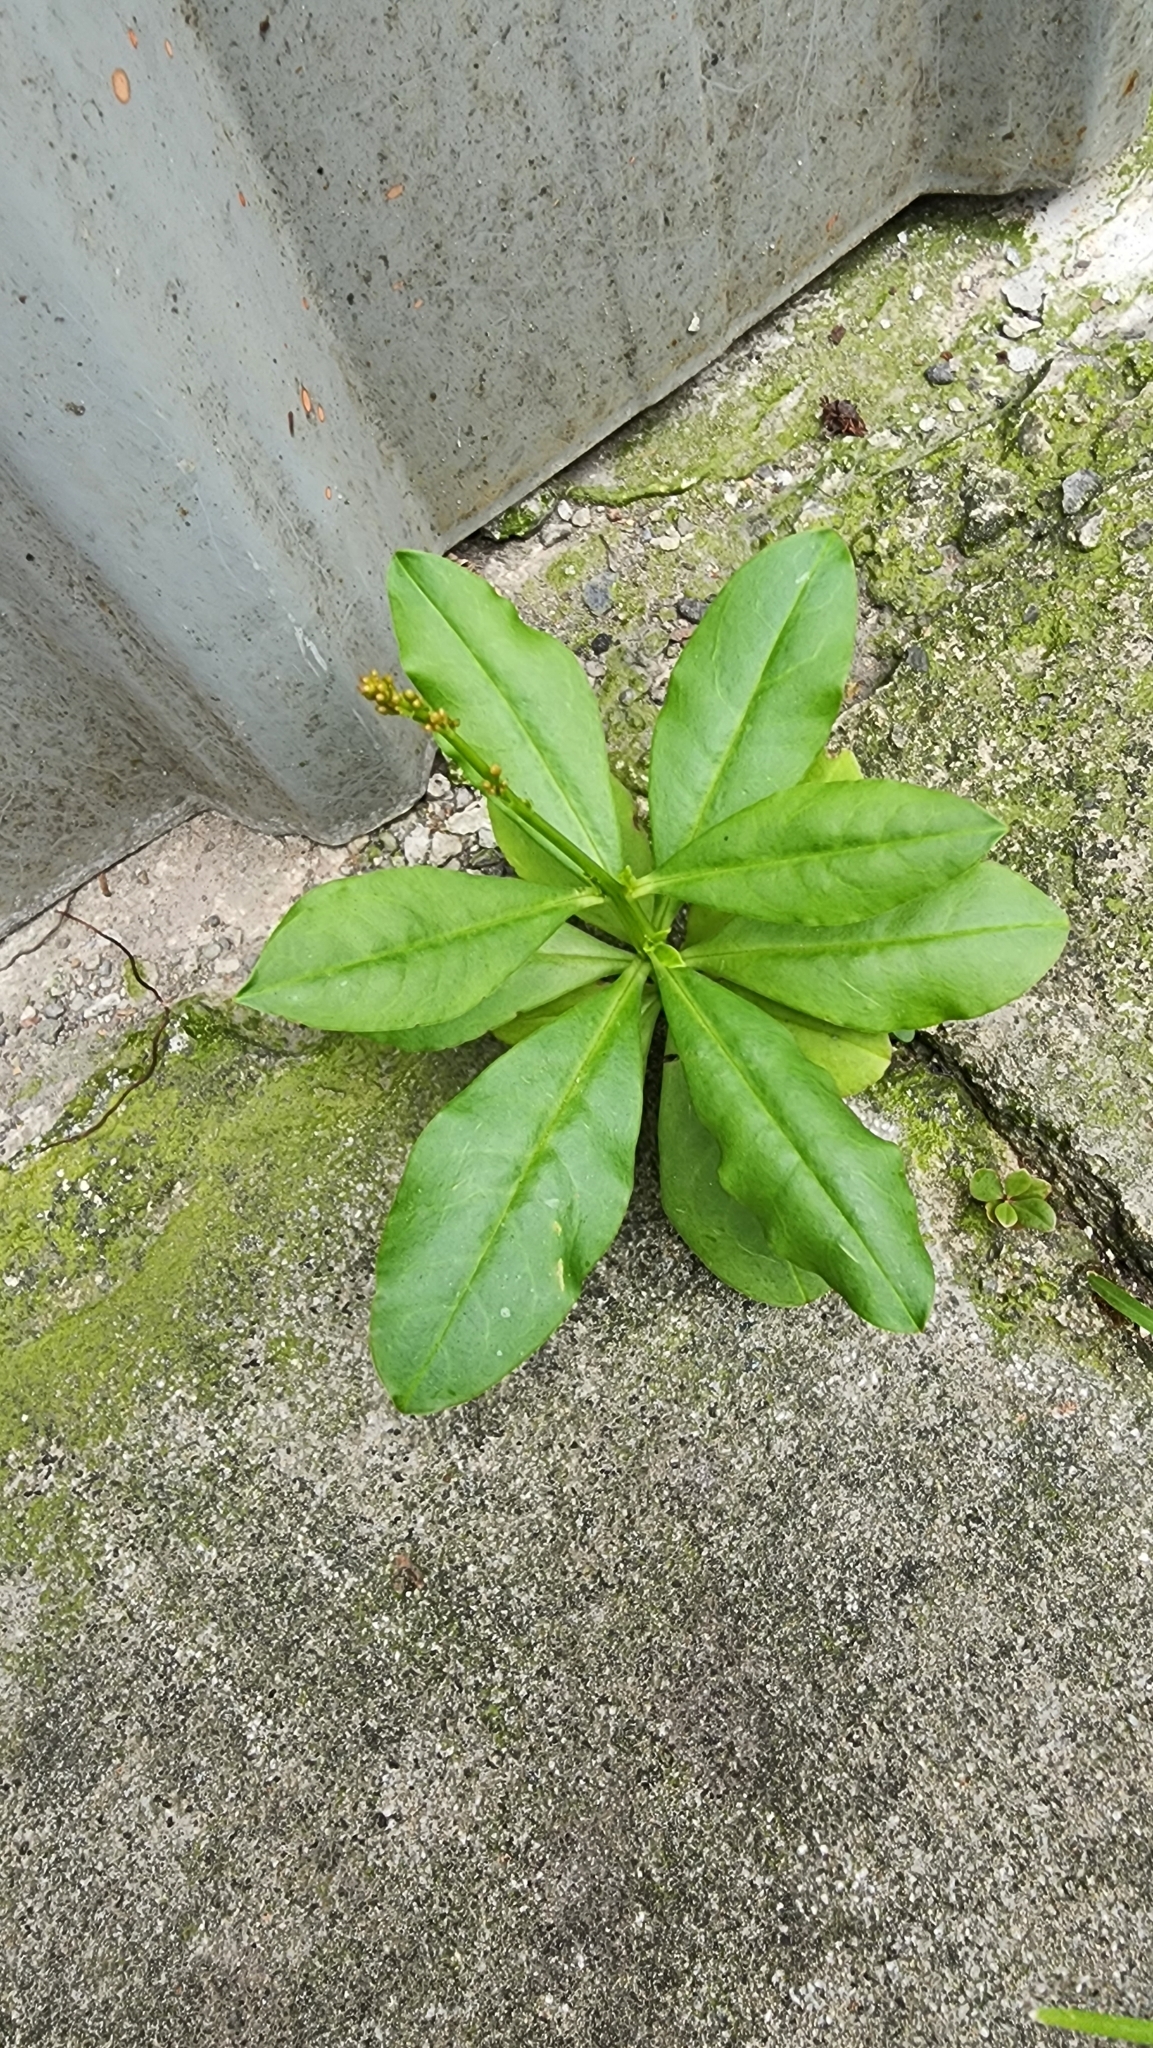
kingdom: Plantae
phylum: Tracheophyta
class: Magnoliopsida
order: Caryophyllales
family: Talinaceae
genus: Talinum
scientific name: Talinum paniculatum
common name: Jewels of opar
